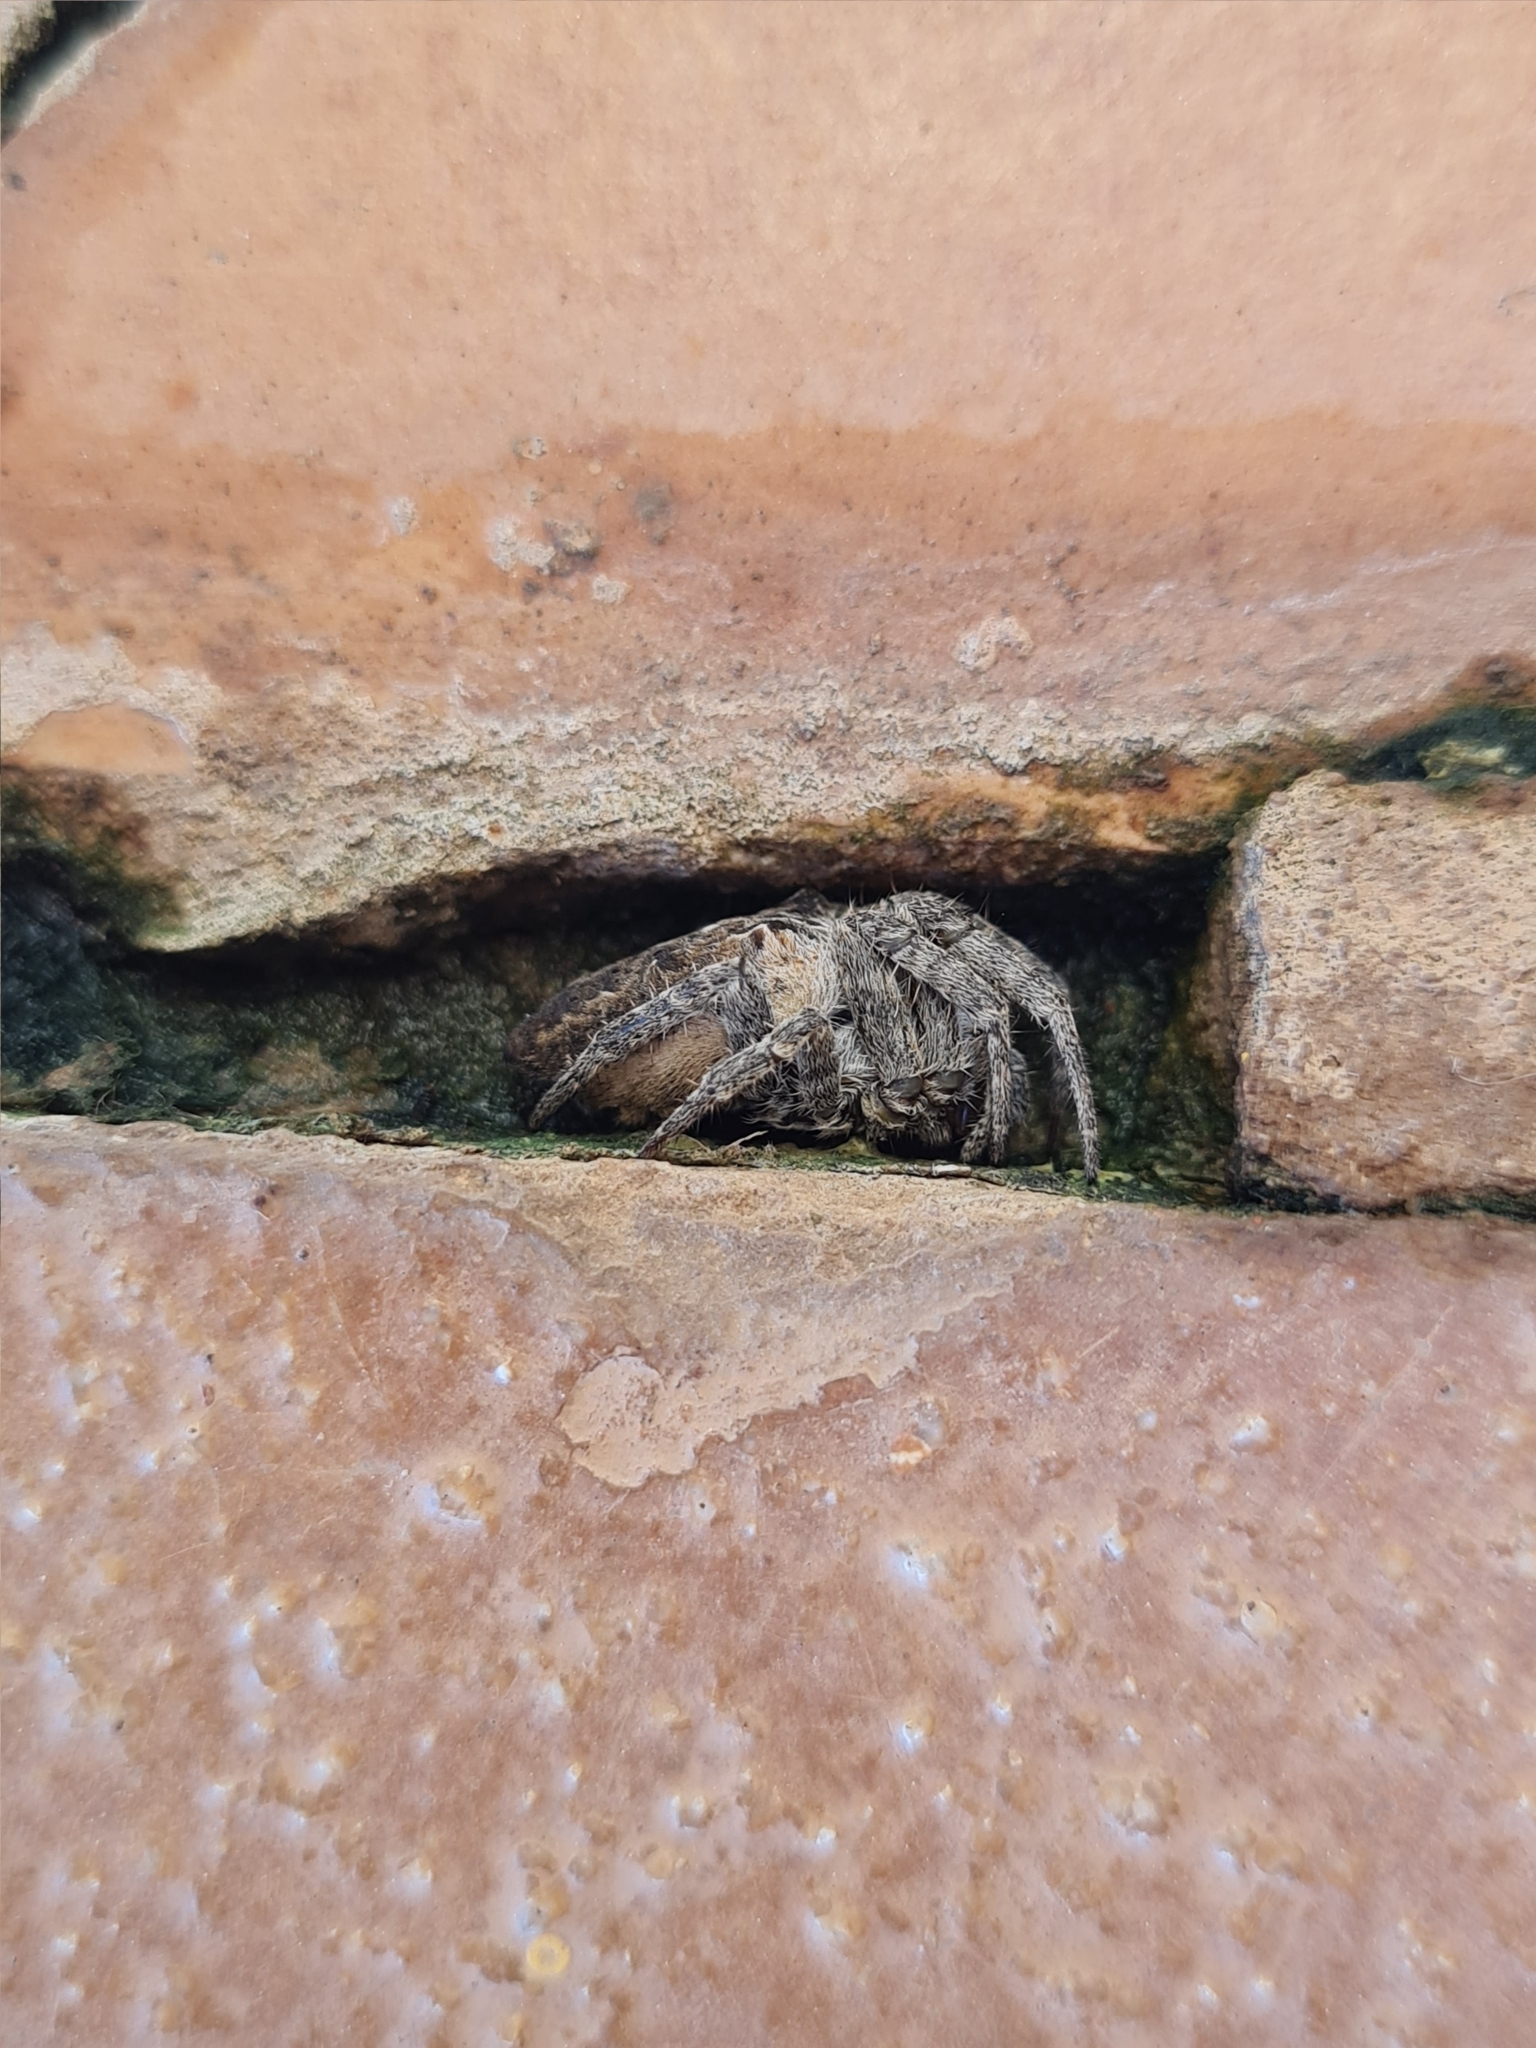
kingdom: Animalia
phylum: Arthropoda
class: Arachnida
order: Araneae
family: Araneidae
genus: Cyrtophora
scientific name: Cyrtophora citricola
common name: Orb weavers
